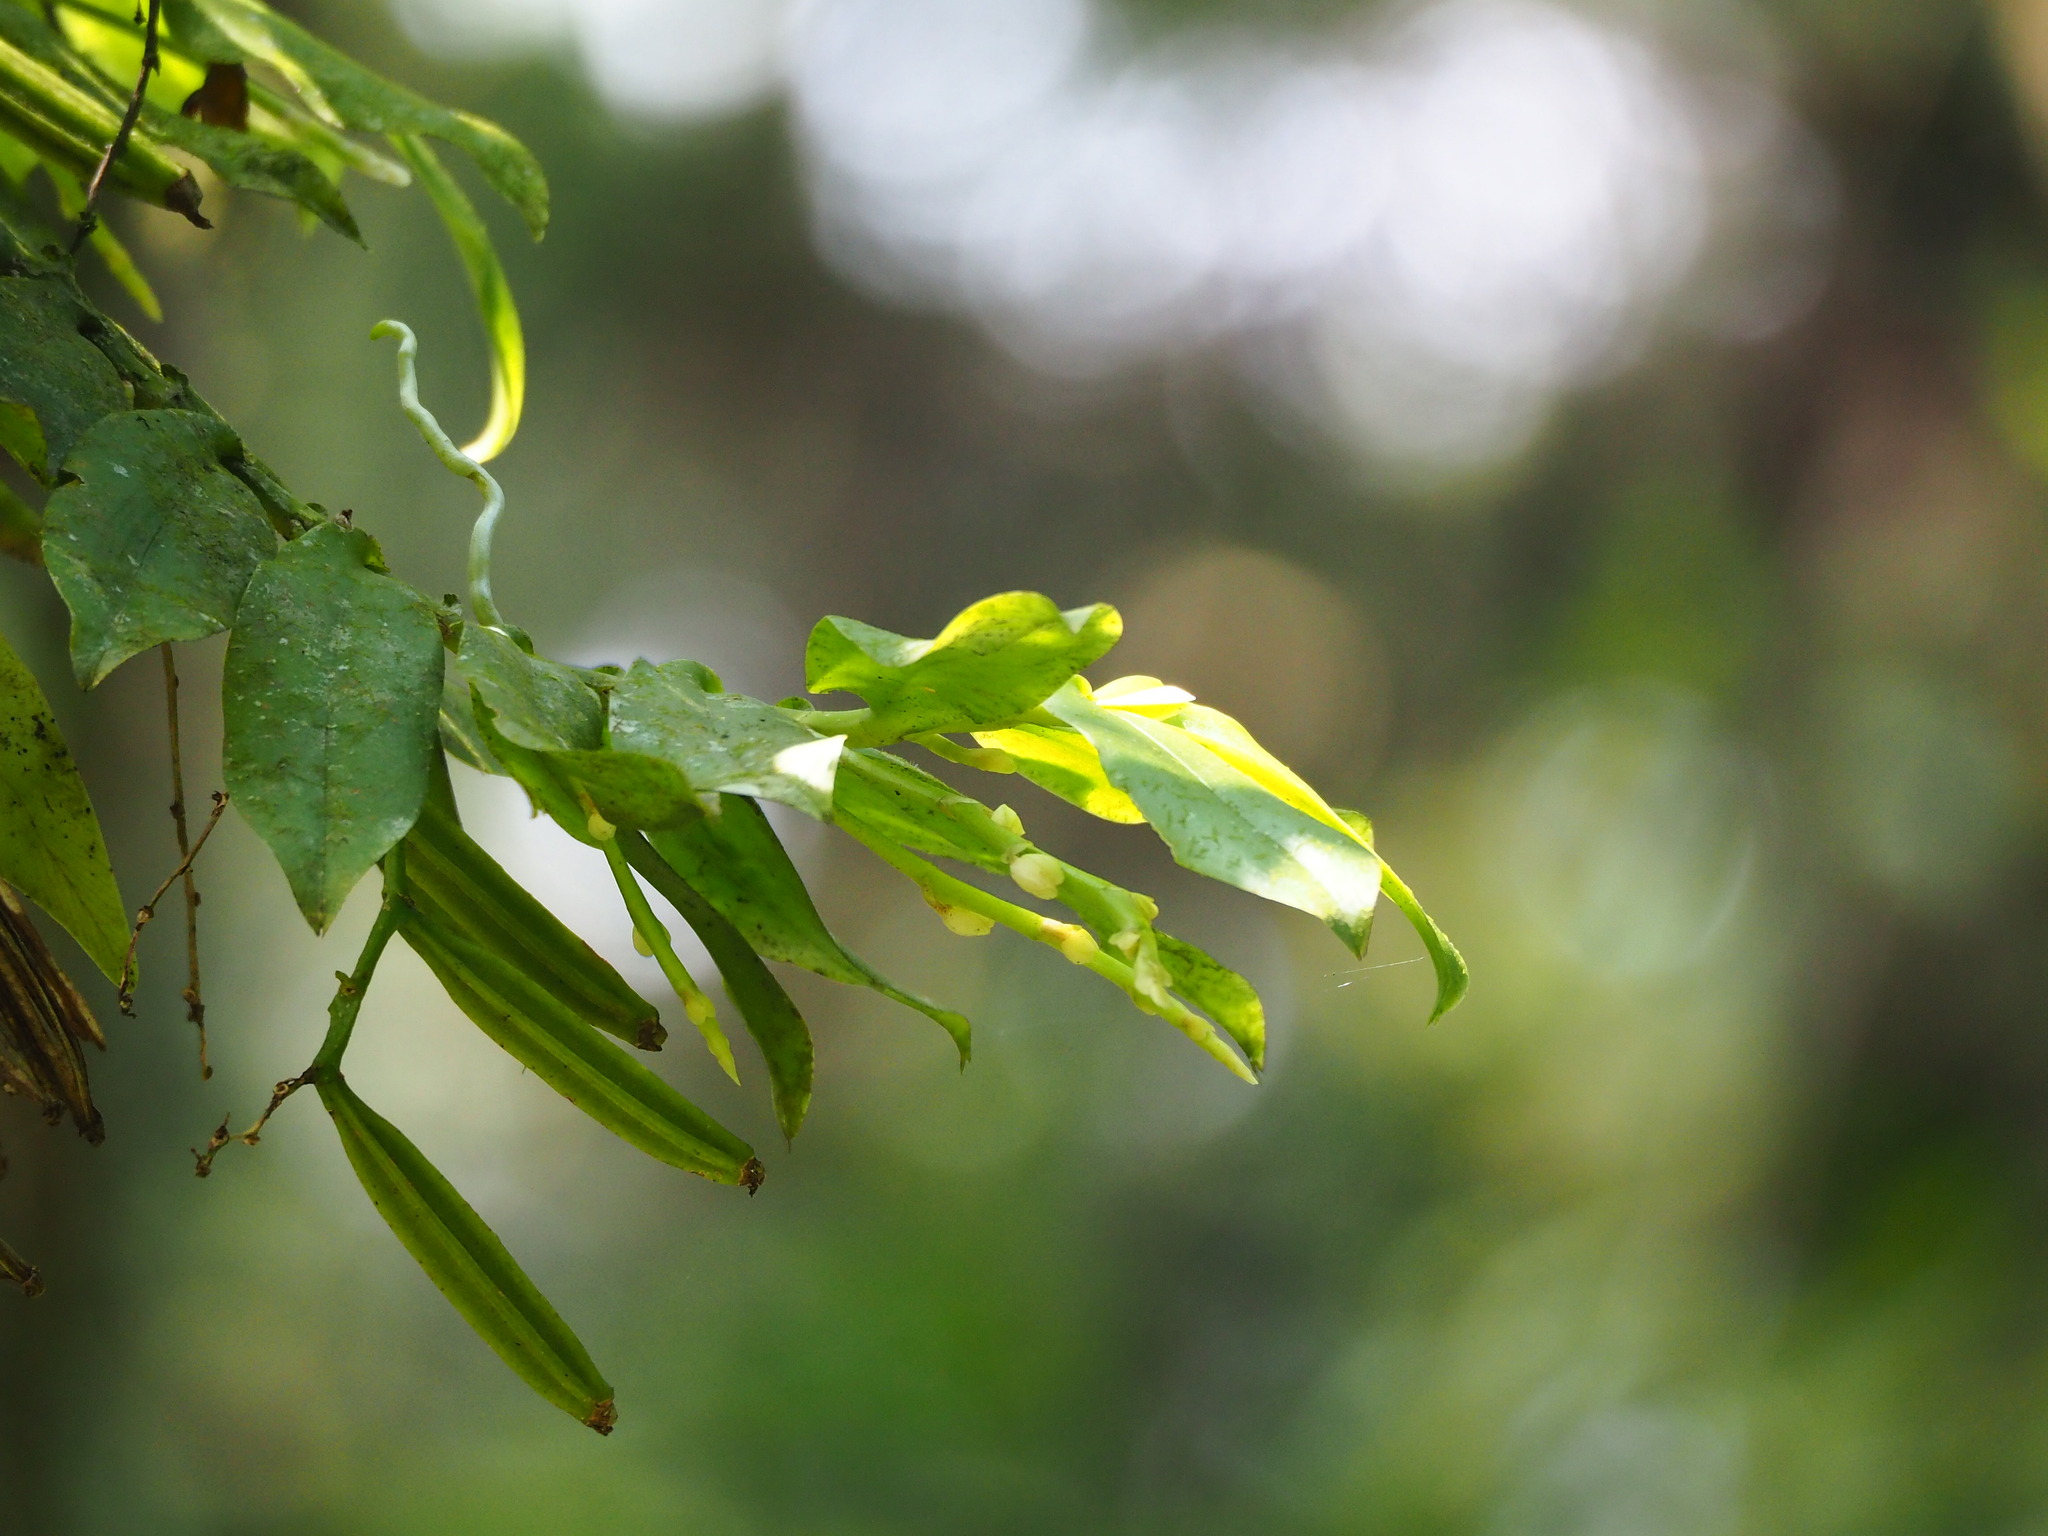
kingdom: Plantae
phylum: Tracheophyta
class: Liliopsida
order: Asparagales
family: Orchidaceae
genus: Diploprora
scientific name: Diploprora championii
